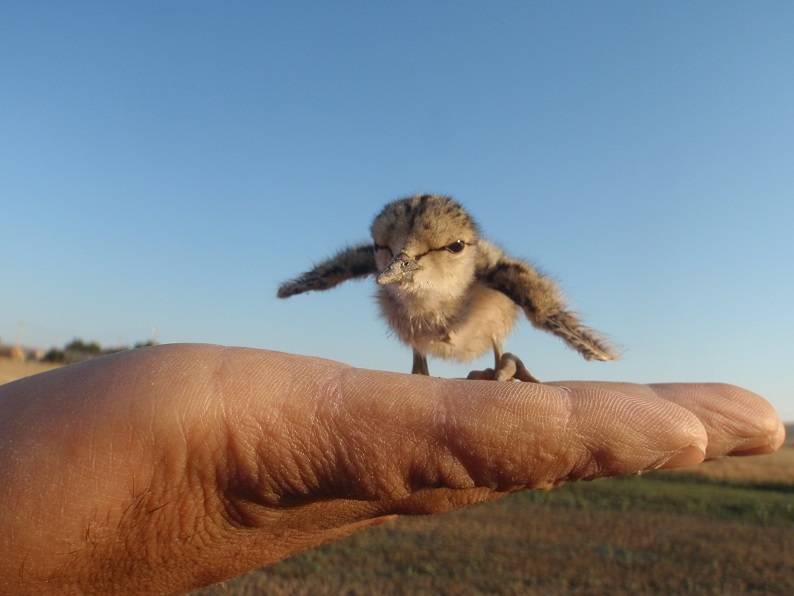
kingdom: Animalia
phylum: Chordata
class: Aves
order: Charadriiformes
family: Recurvirostridae
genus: Himantopus
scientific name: Himantopus himantopus
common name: Black-winged stilt
